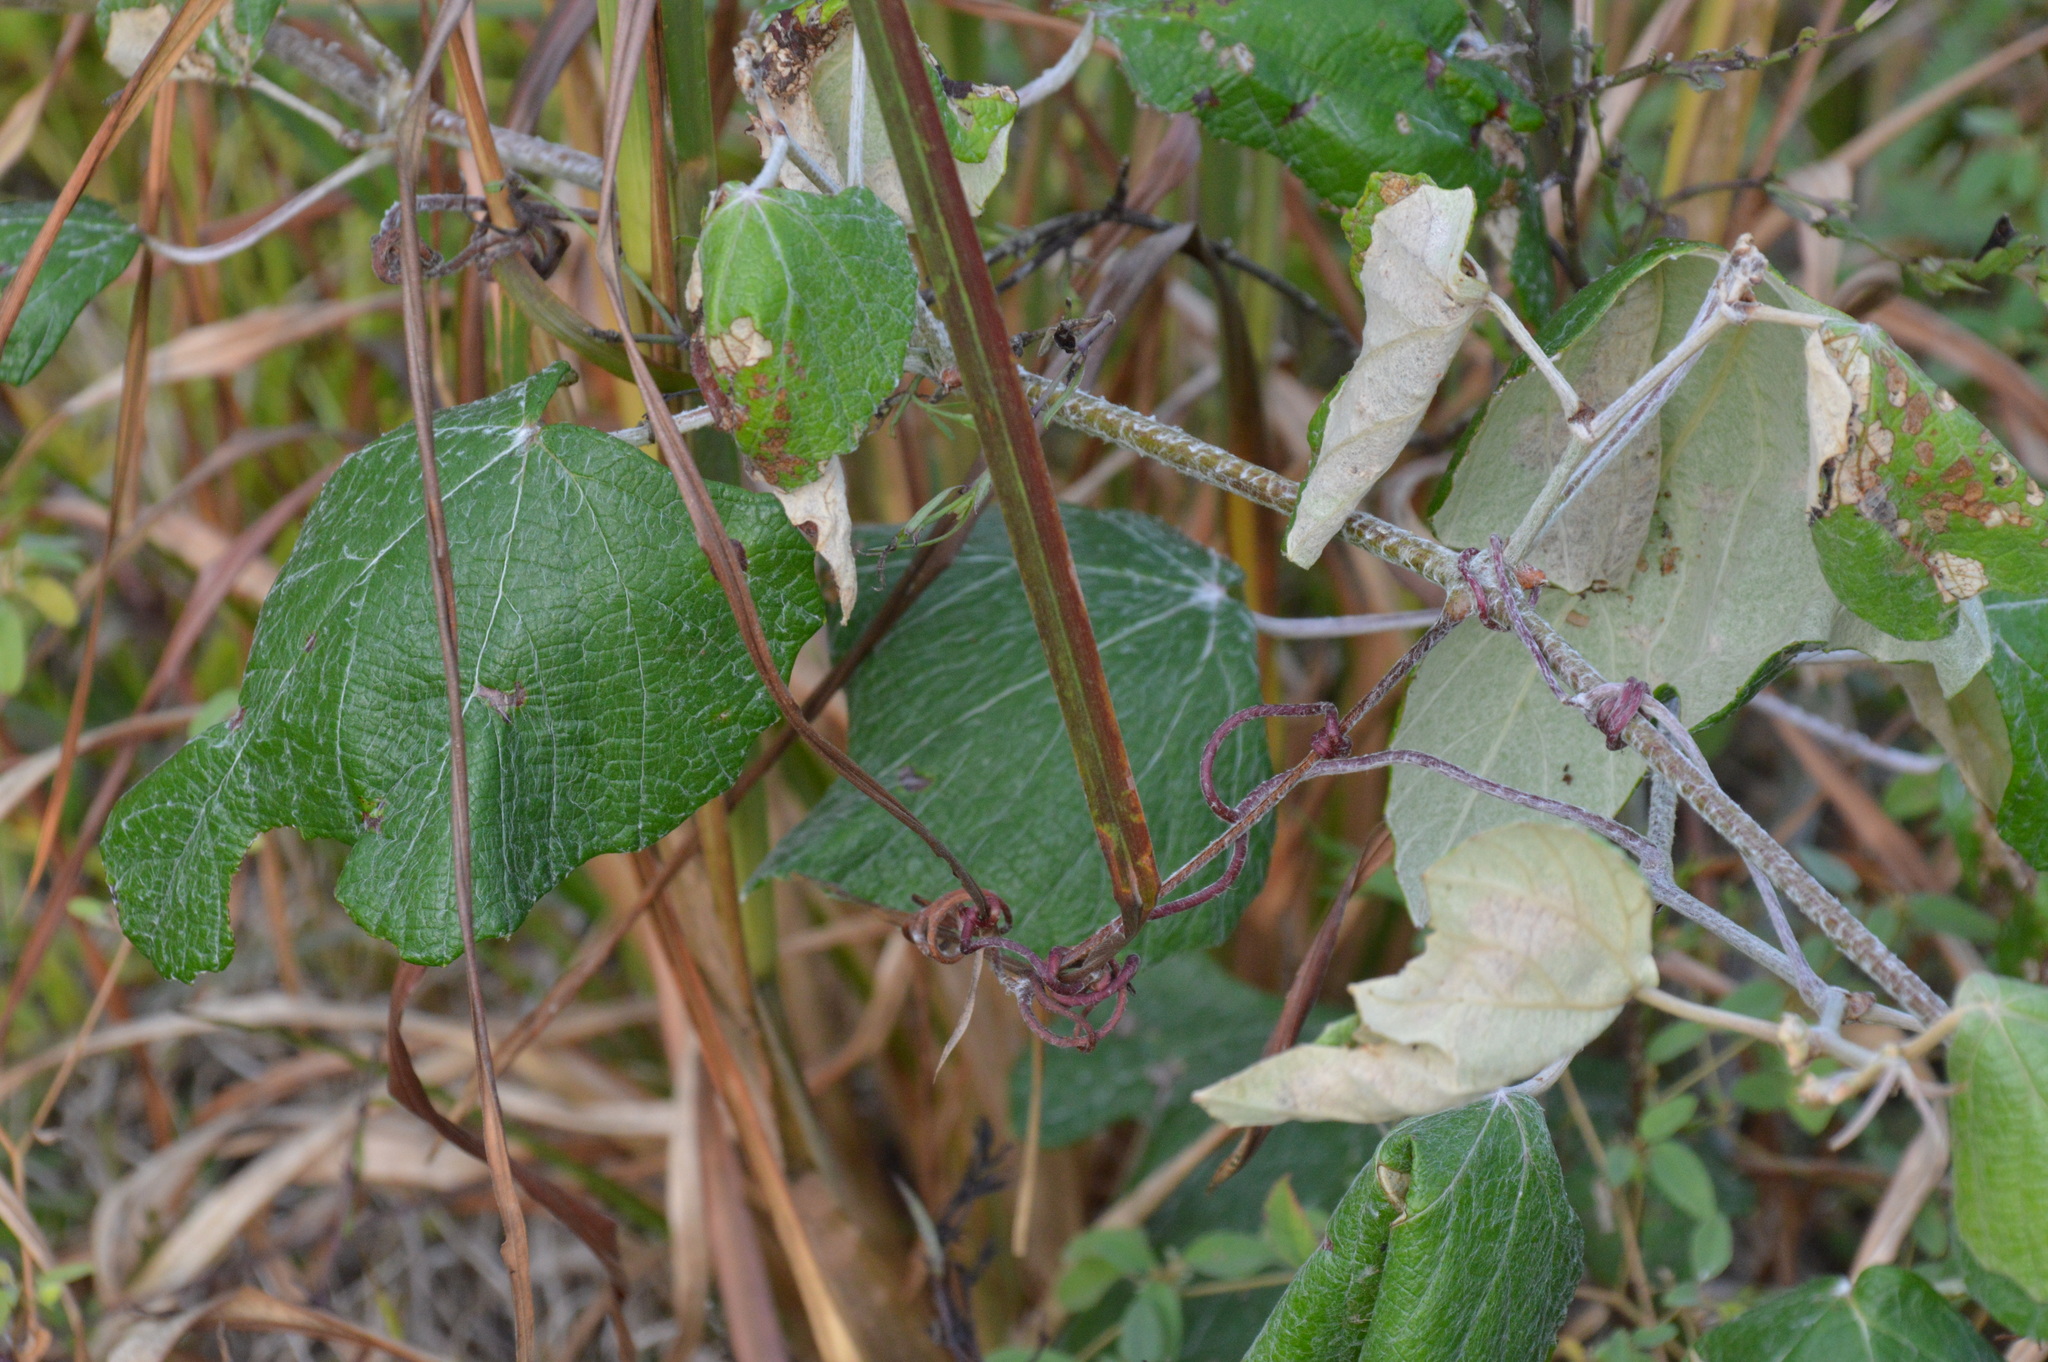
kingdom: Plantae
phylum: Tracheophyta
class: Magnoliopsida
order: Vitales
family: Vitaceae
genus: Vitis
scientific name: Vitis mustangensis
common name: Mustang grape
